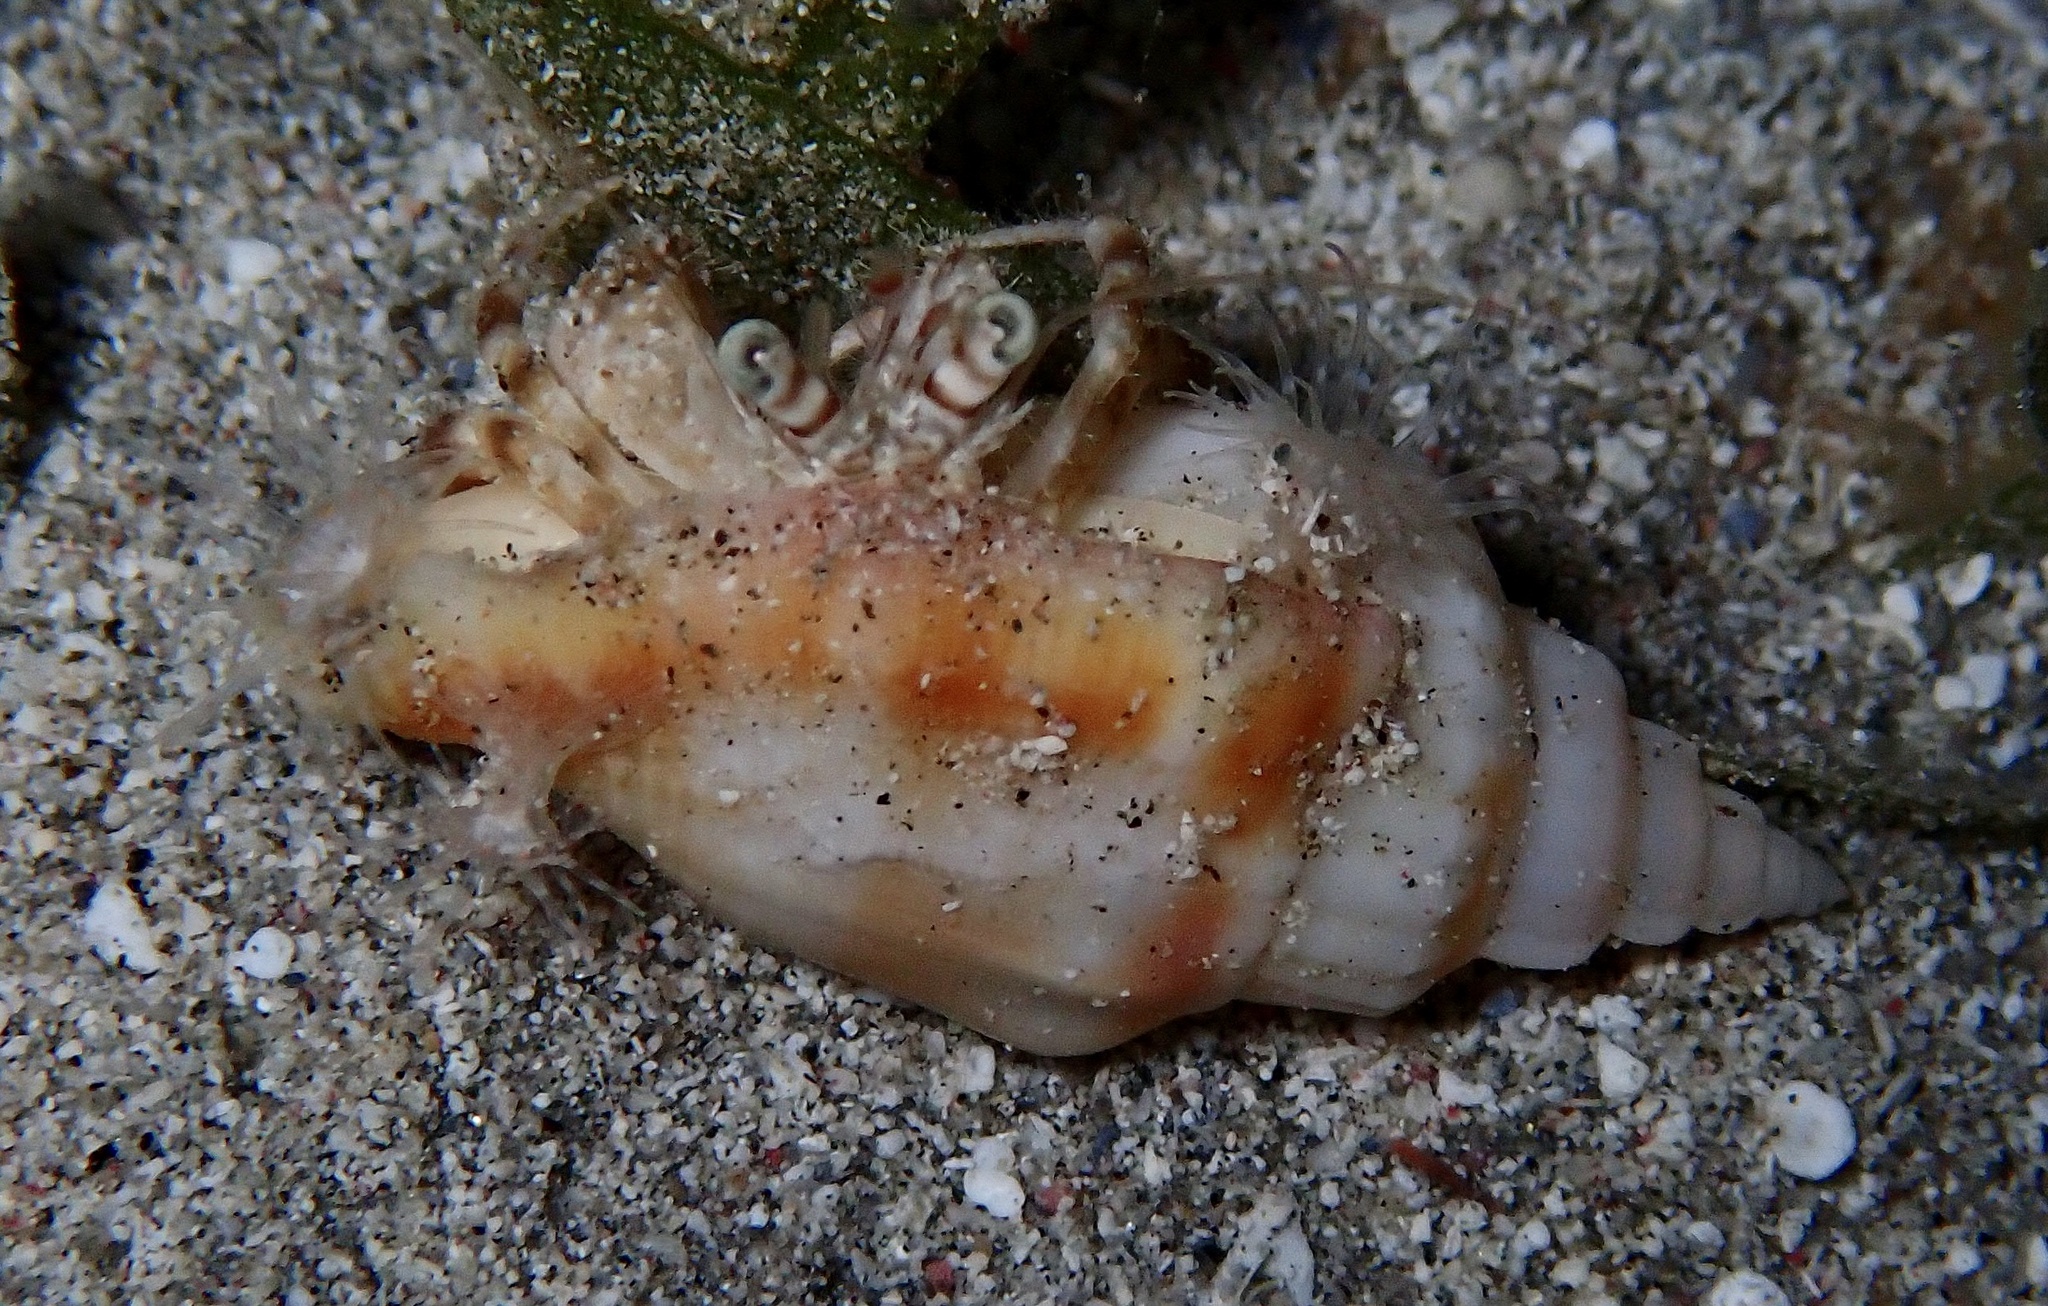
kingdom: Animalia
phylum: Arthropoda
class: Malacostraca
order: Decapoda
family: Diogenidae
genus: Dardanus
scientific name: Dardanus tinctor
